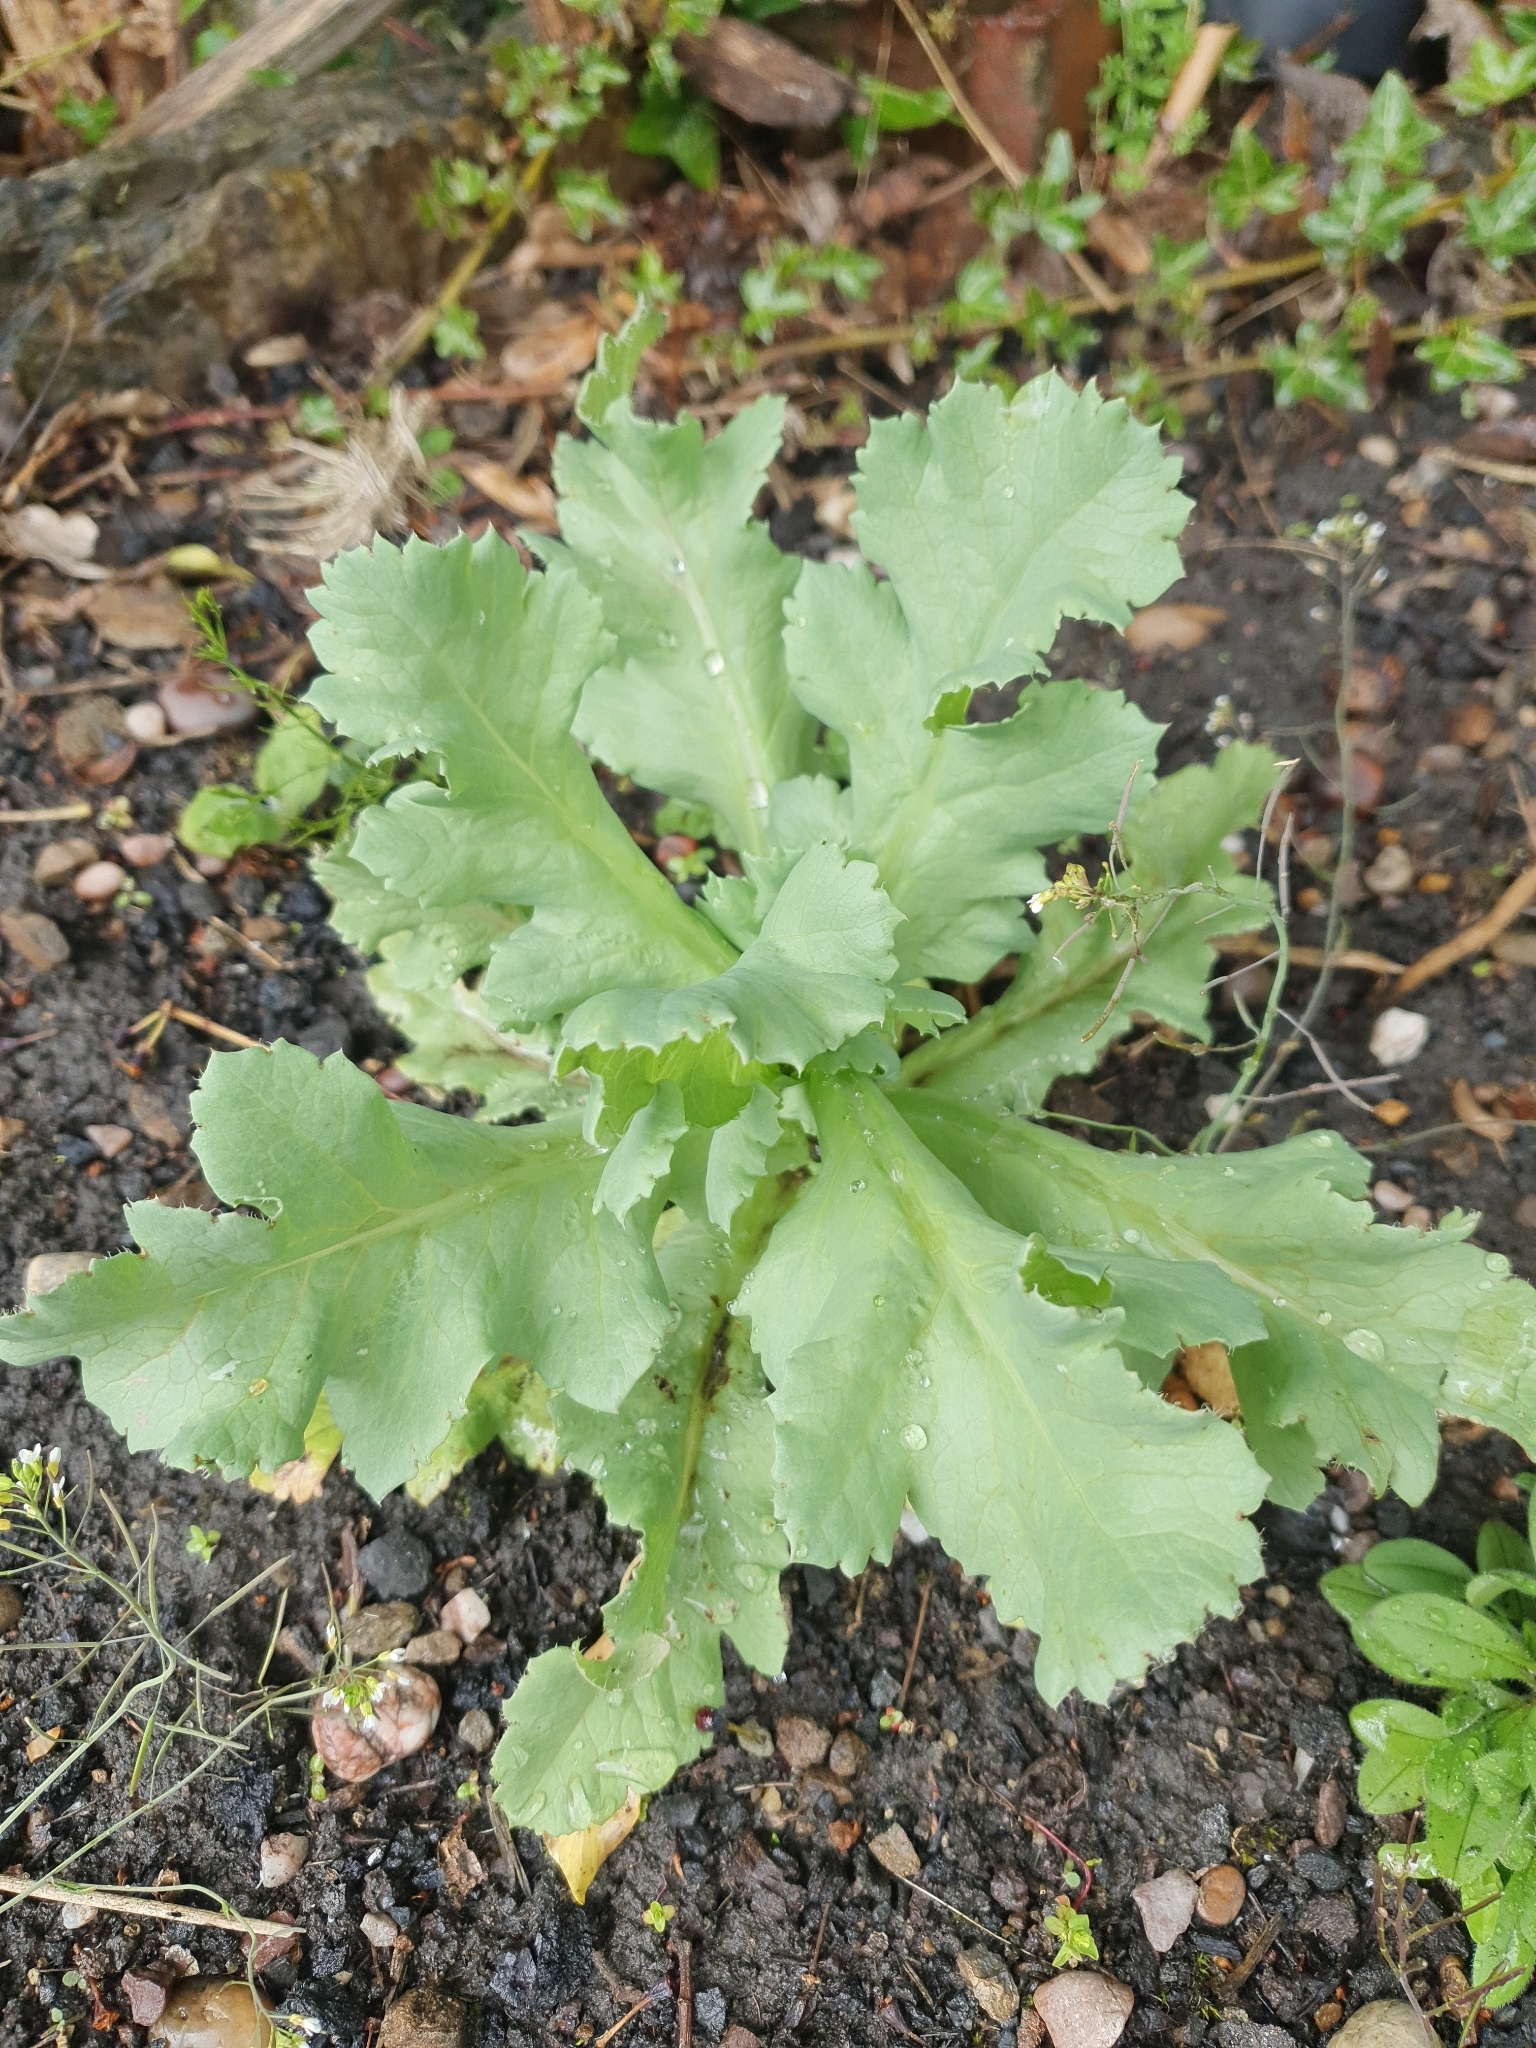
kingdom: Plantae
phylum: Tracheophyta
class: Magnoliopsida
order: Ranunculales
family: Papaveraceae
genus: Papaver
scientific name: Papaver somniferum
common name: Opium poppy
